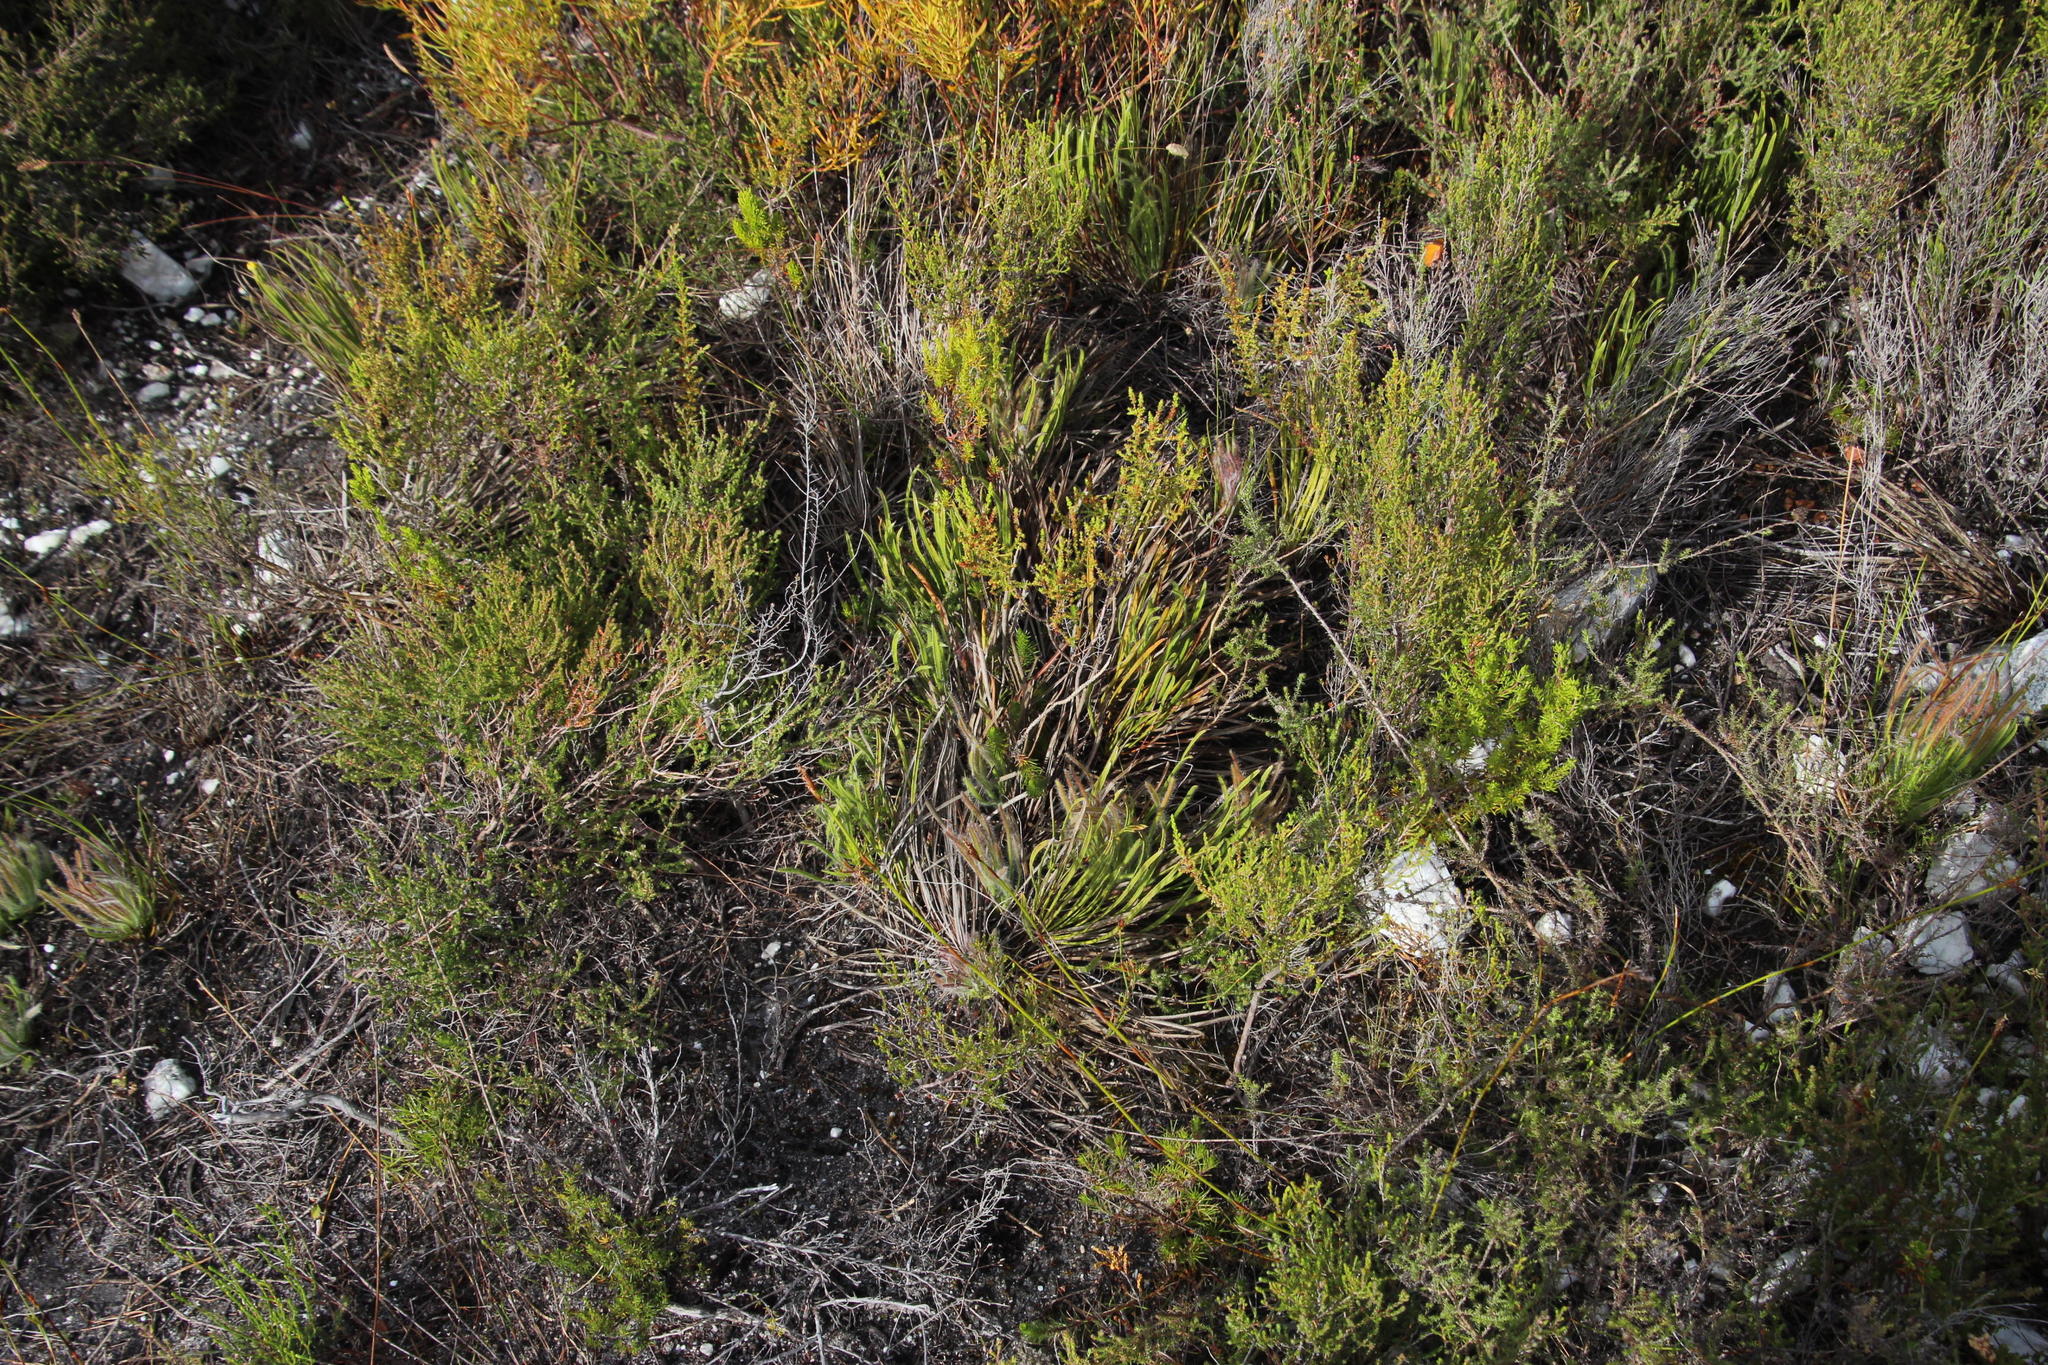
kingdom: Plantae
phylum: Tracheophyta
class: Magnoliopsida
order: Proteales
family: Proteaceae
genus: Protea
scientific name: Protea scabra
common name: Sandpaper-leaf sugarbush
